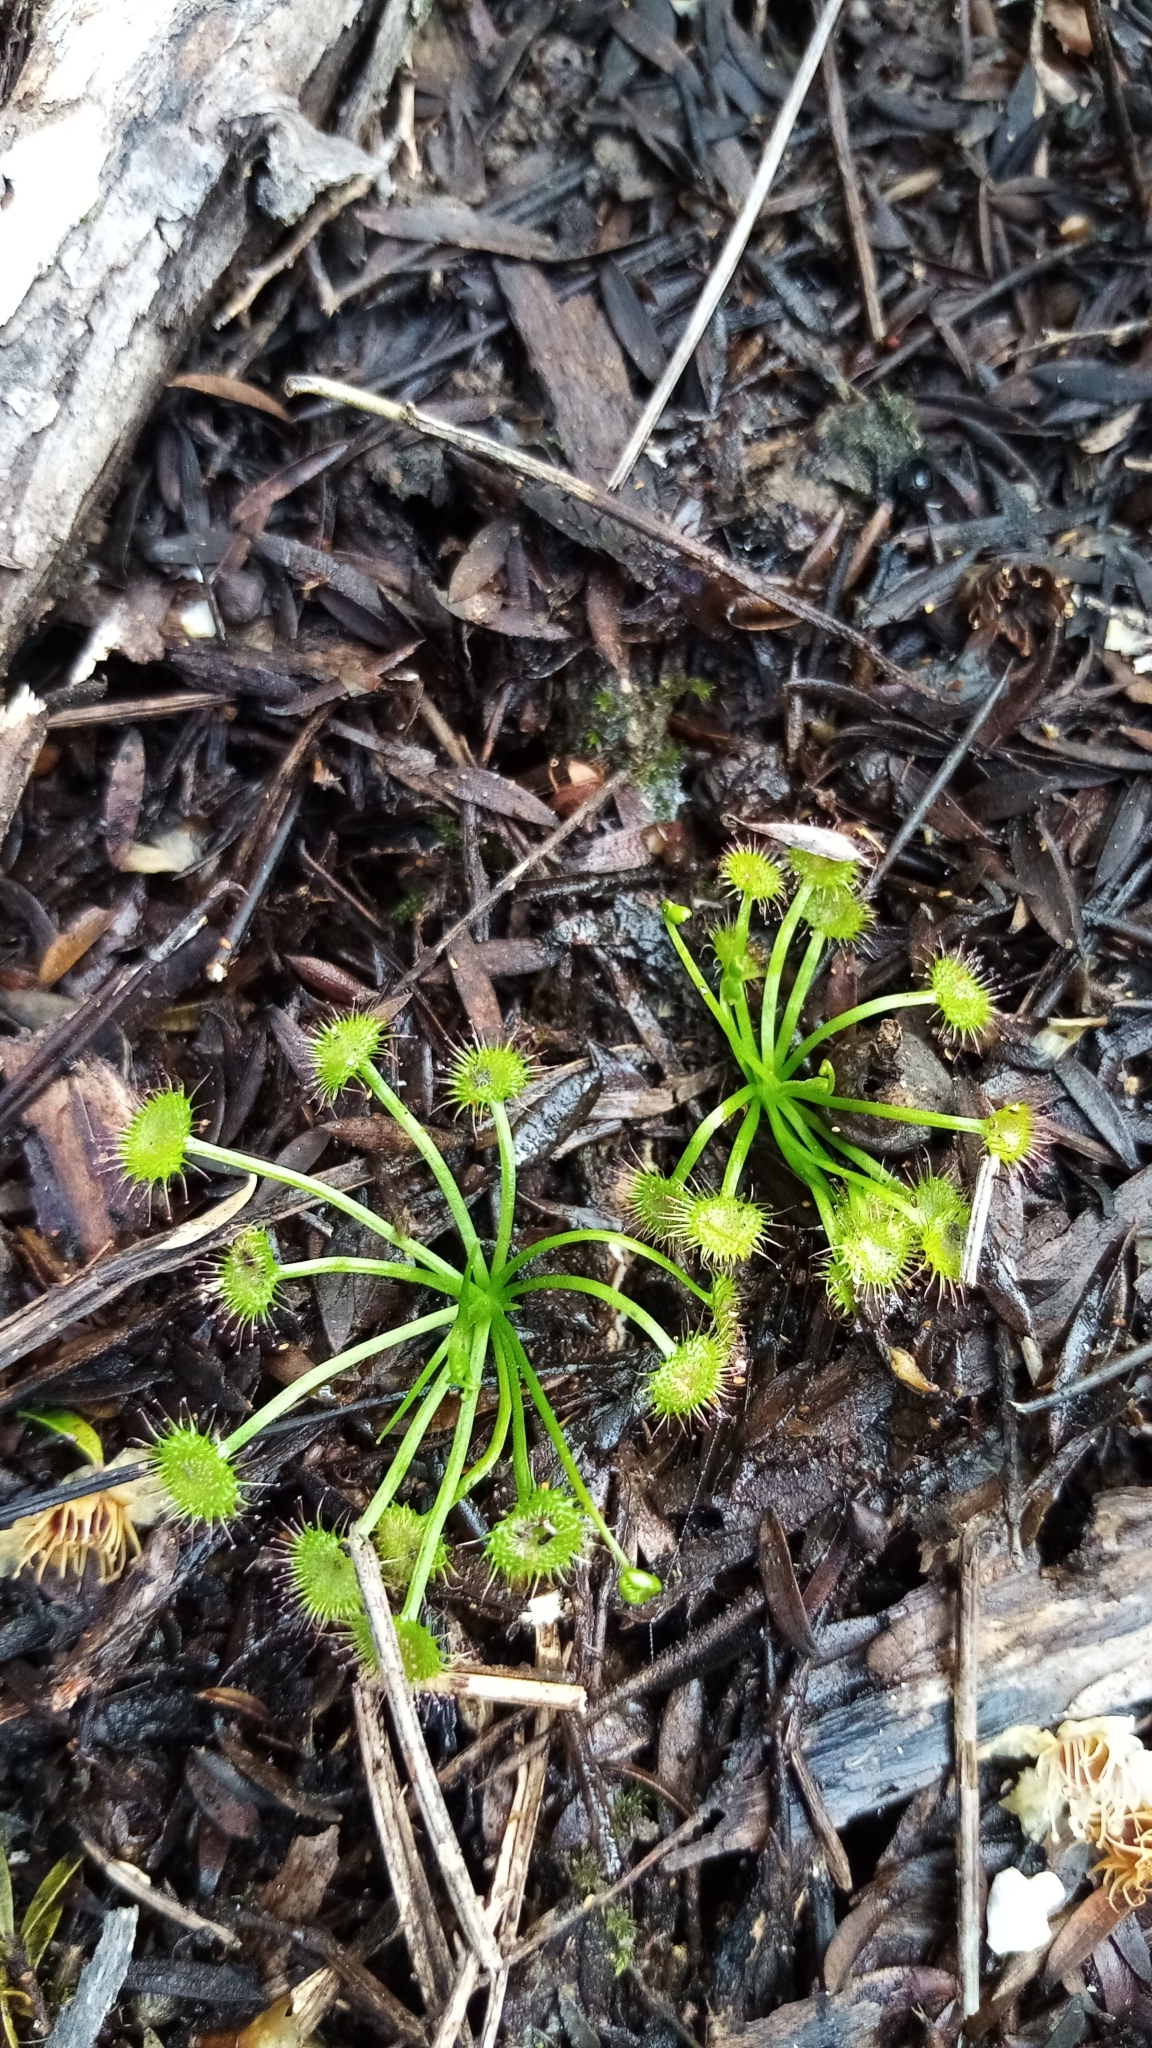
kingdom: Plantae
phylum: Tracheophyta
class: Magnoliopsida
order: Caryophyllales
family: Droseraceae
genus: Drosera
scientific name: Drosera peltata
